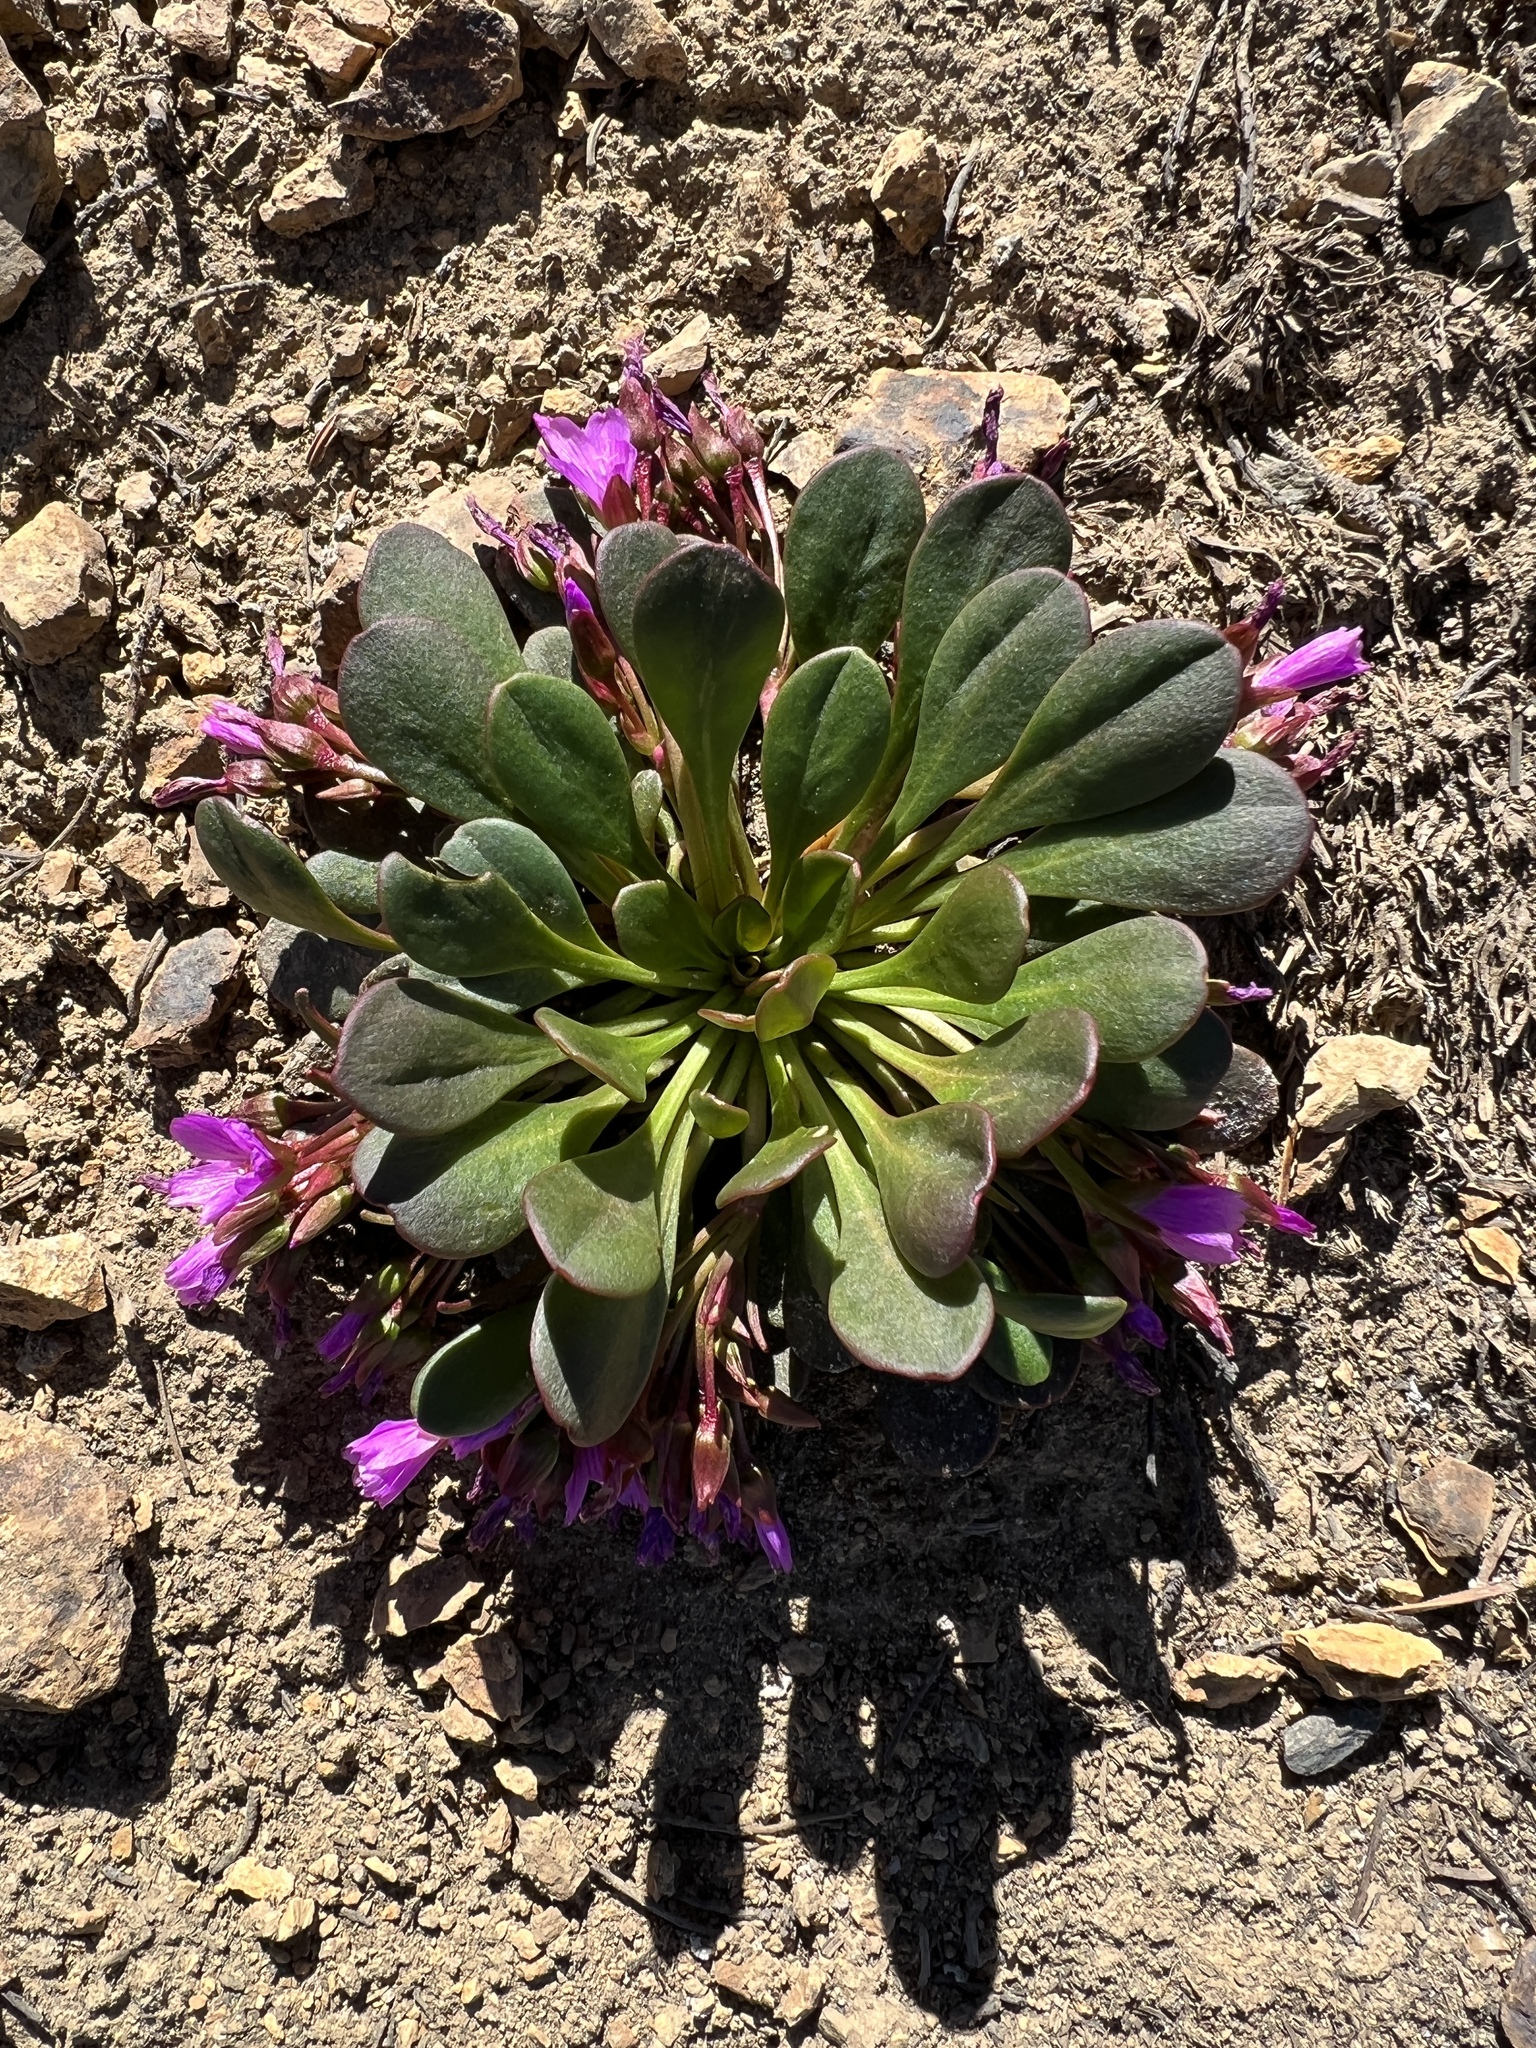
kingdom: Plantae
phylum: Tracheophyta
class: Magnoliopsida
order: Caryophyllales
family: Montiaceae
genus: Claytonia
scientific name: Claytonia megarhiza
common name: Alpine spring beauty
